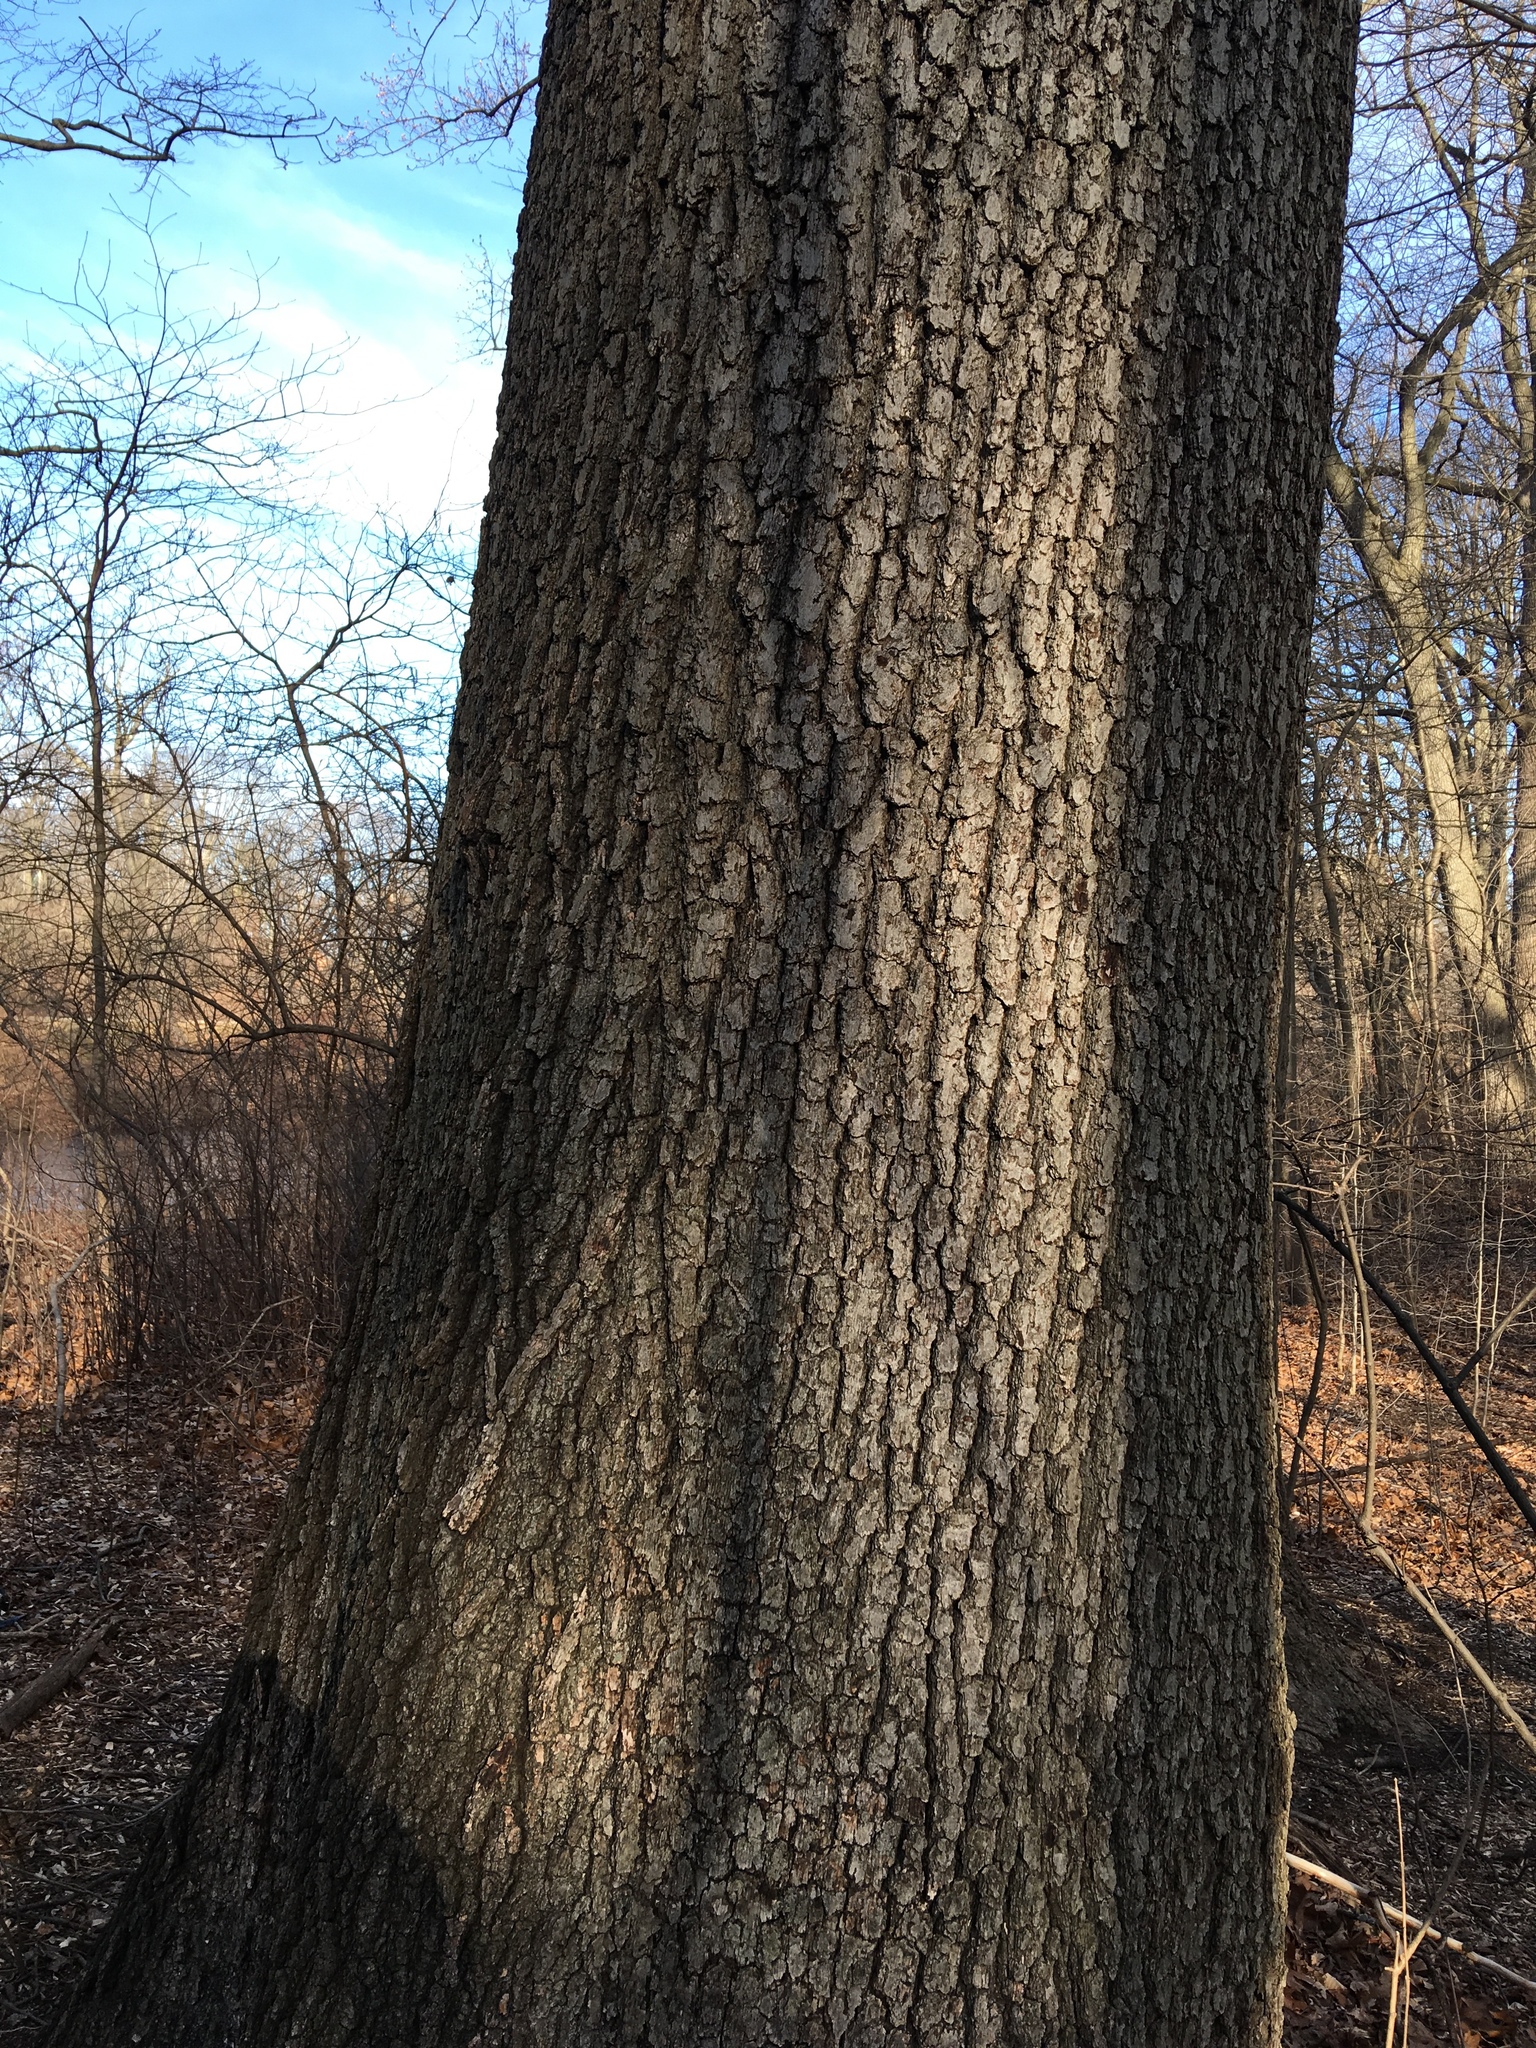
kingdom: Plantae
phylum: Tracheophyta
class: Magnoliopsida
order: Fagales
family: Fagaceae
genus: Quercus
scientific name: Quercus velutina
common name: Black oak
